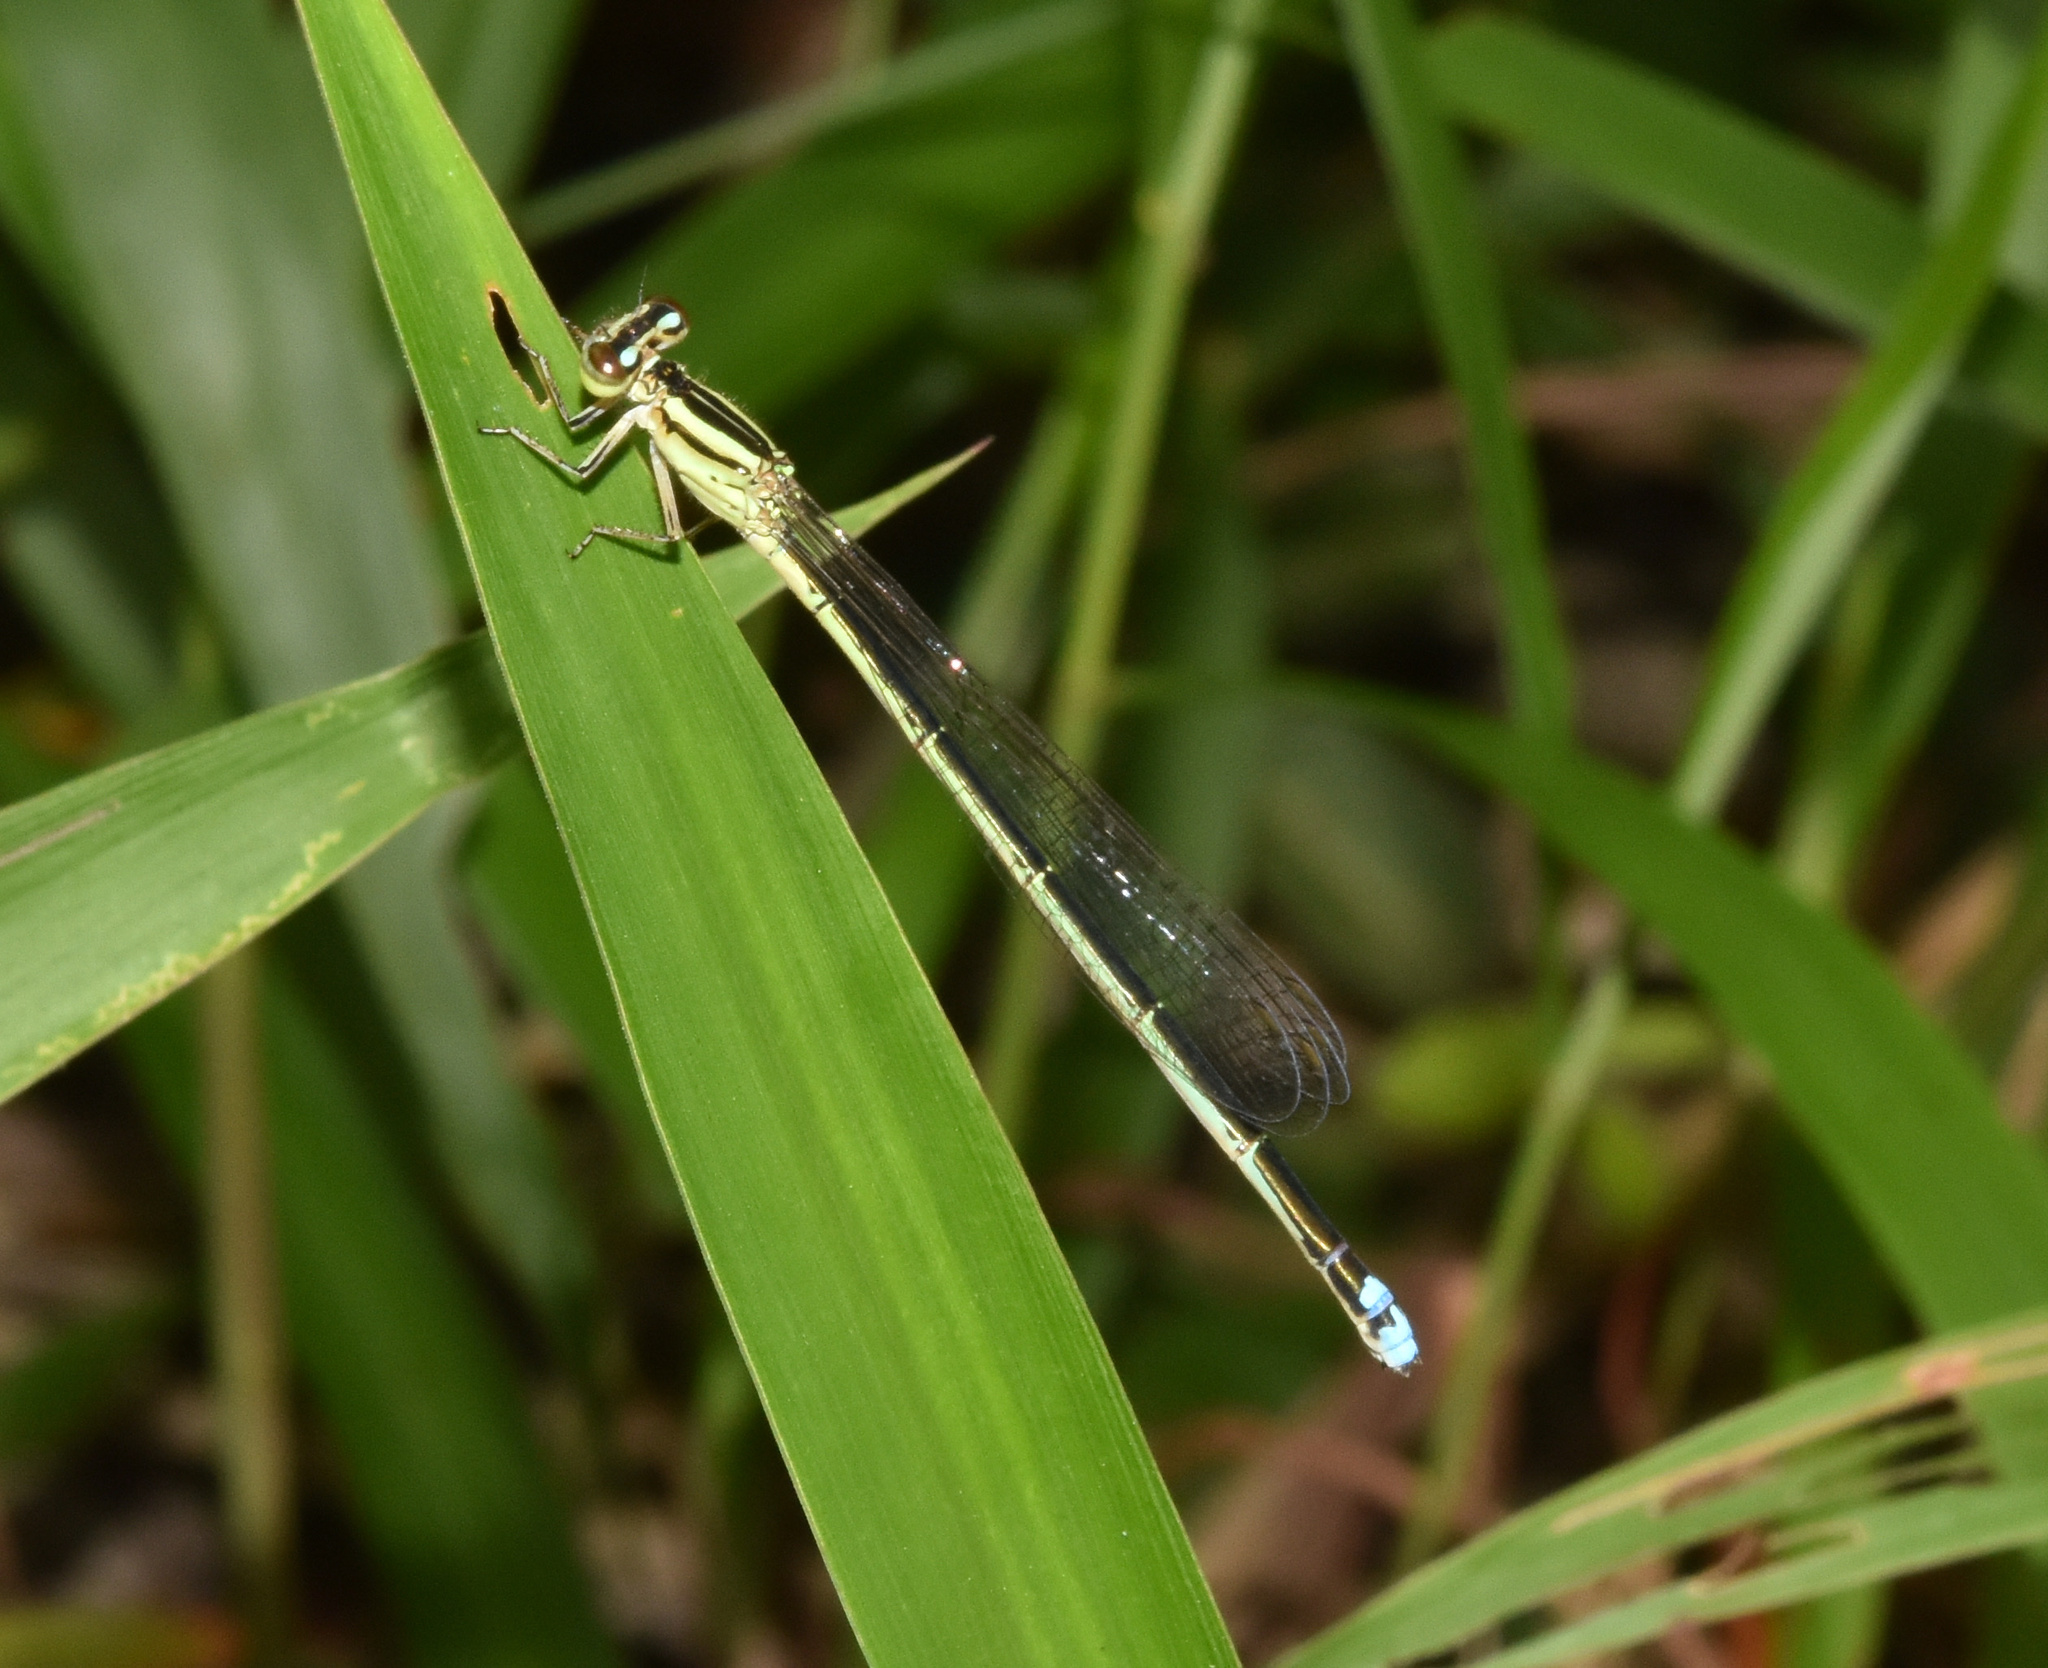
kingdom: Animalia
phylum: Arthropoda
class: Insecta
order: Odonata
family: Coenagrionidae
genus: Pseudagrion
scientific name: Pseudagrion kersteni
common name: Powder-faced sprite
